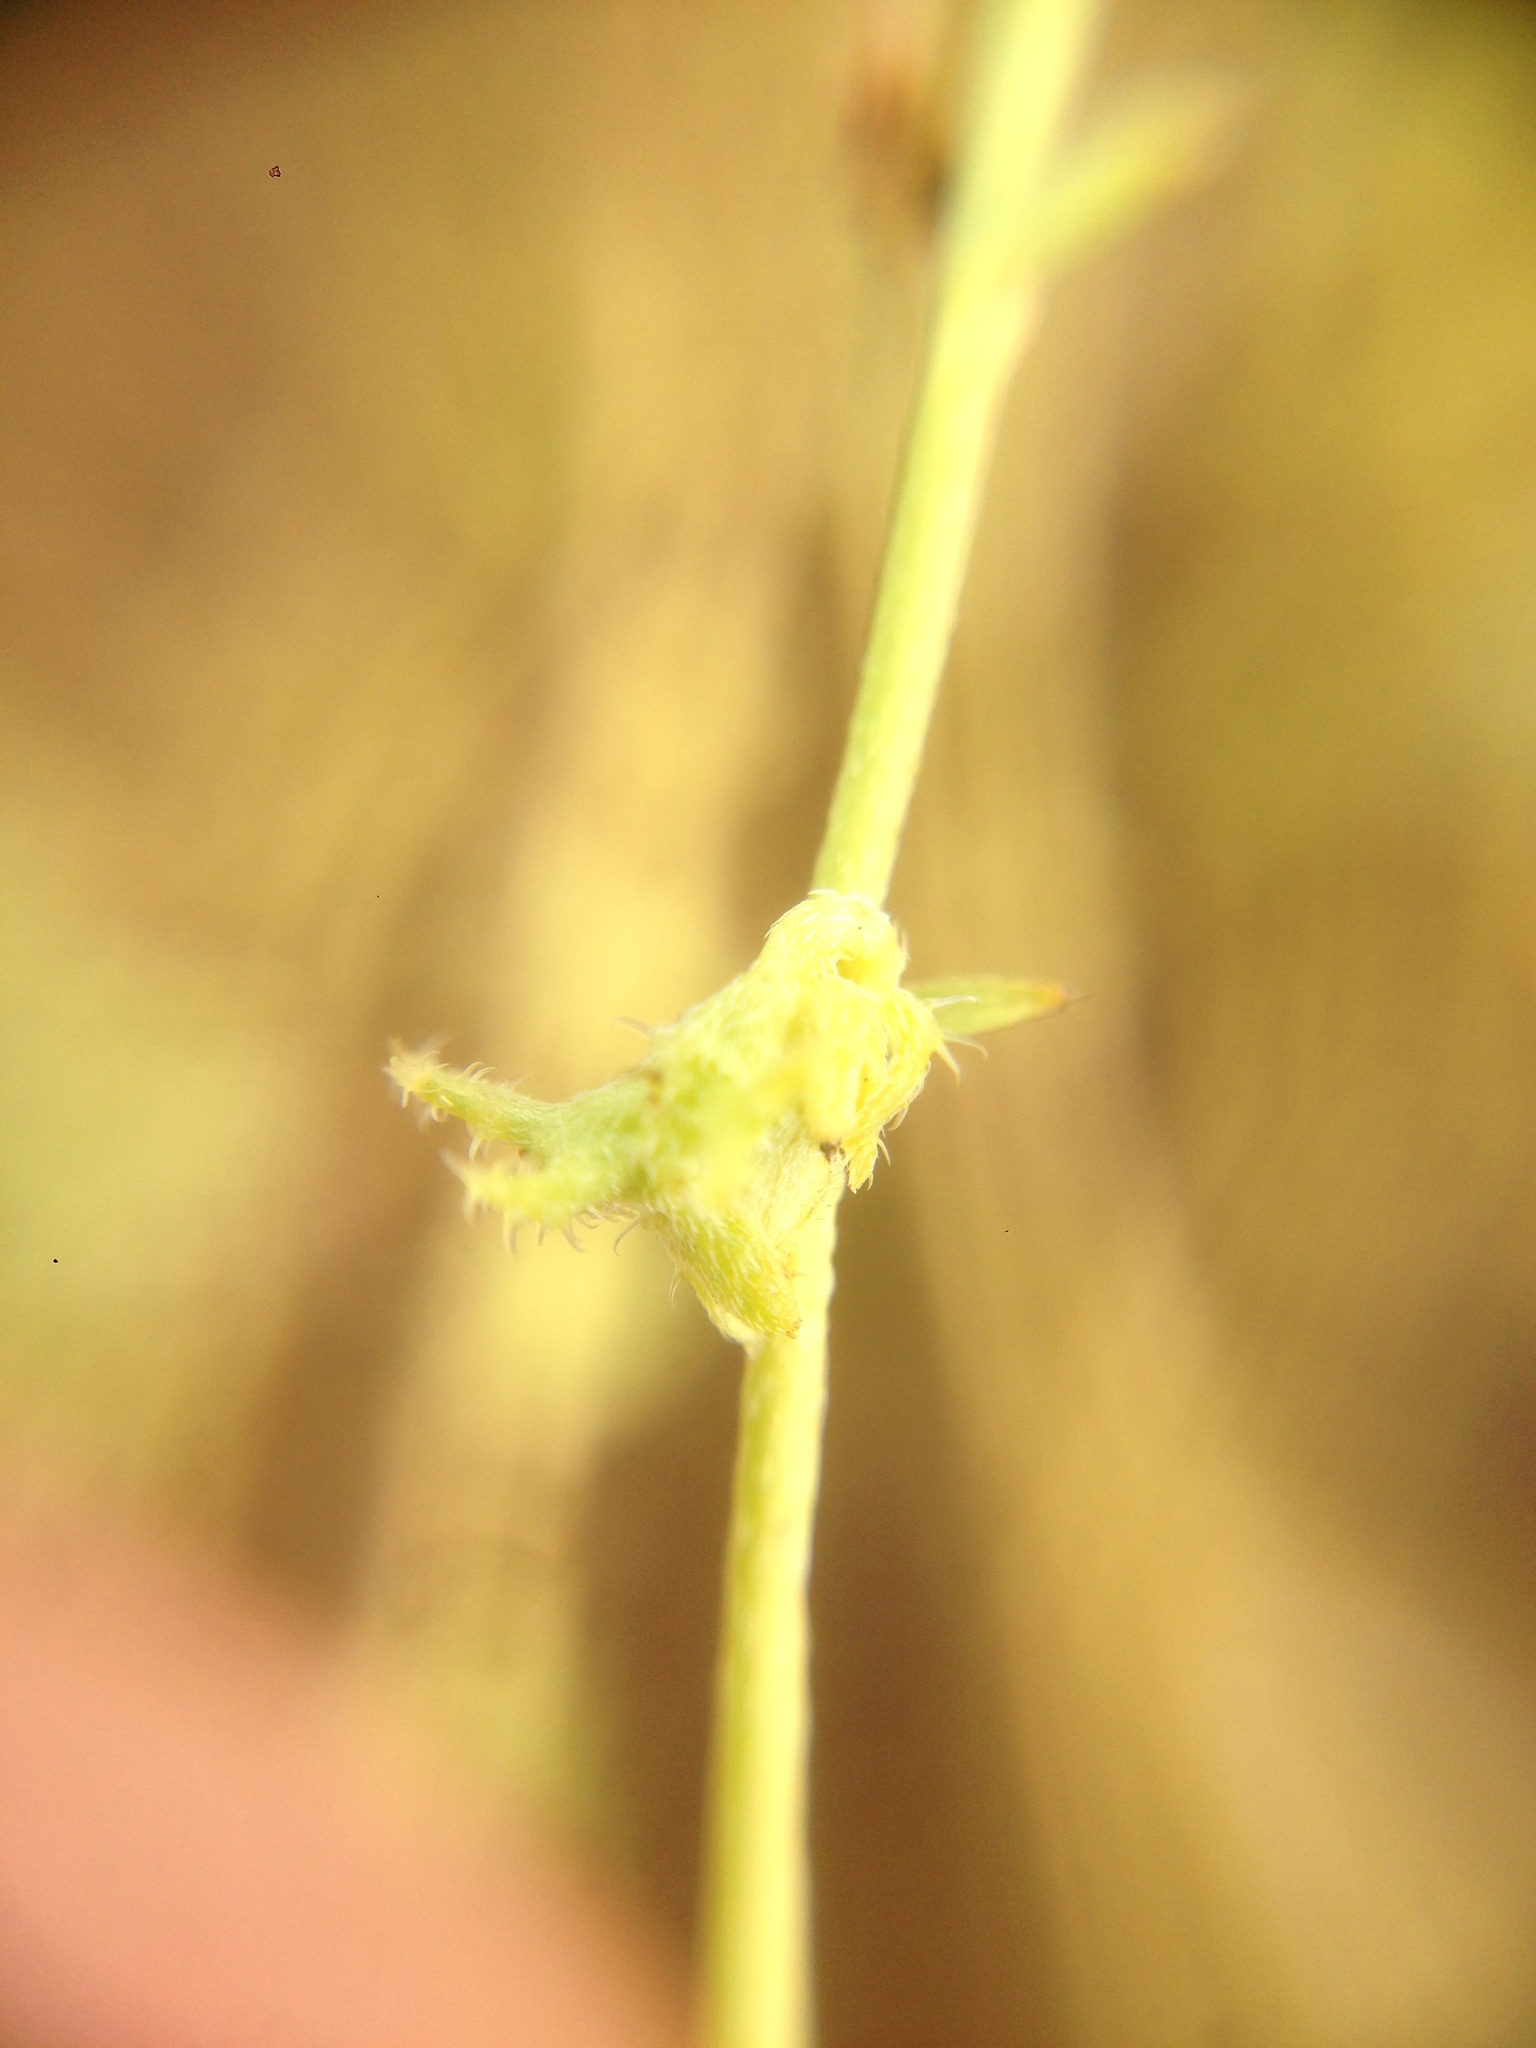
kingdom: Plantae
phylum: Tracheophyta
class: Magnoliopsida
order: Boraginales
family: Boraginaceae
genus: Harpagonella
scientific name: Harpagonella palmeri
